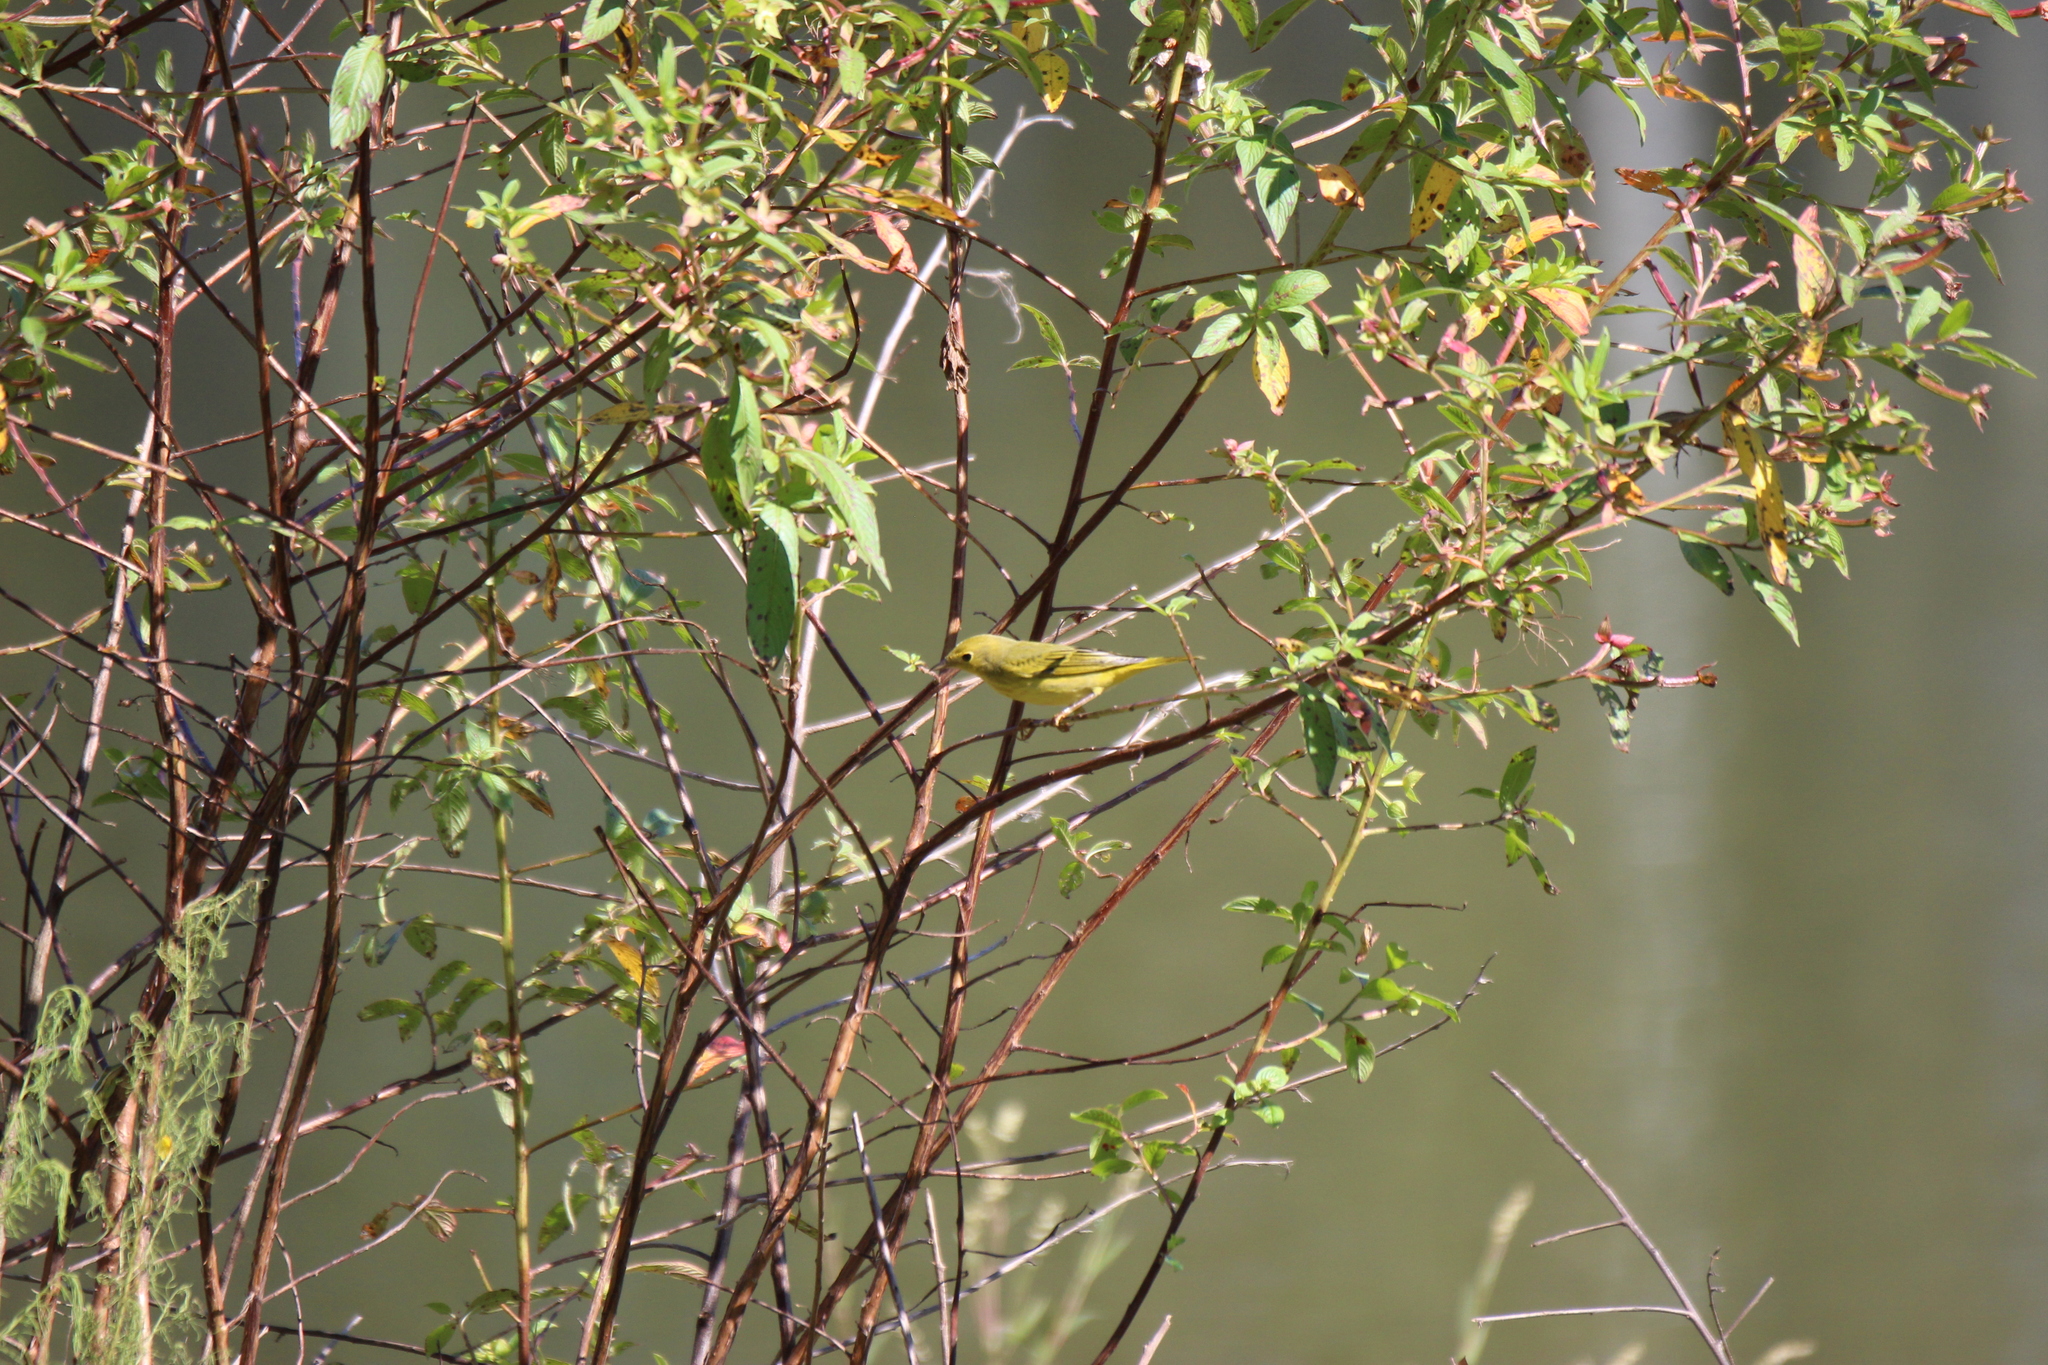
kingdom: Animalia
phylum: Chordata
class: Aves
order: Passeriformes
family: Parulidae
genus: Setophaga
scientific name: Setophaga petechia
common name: Yellow warbler
